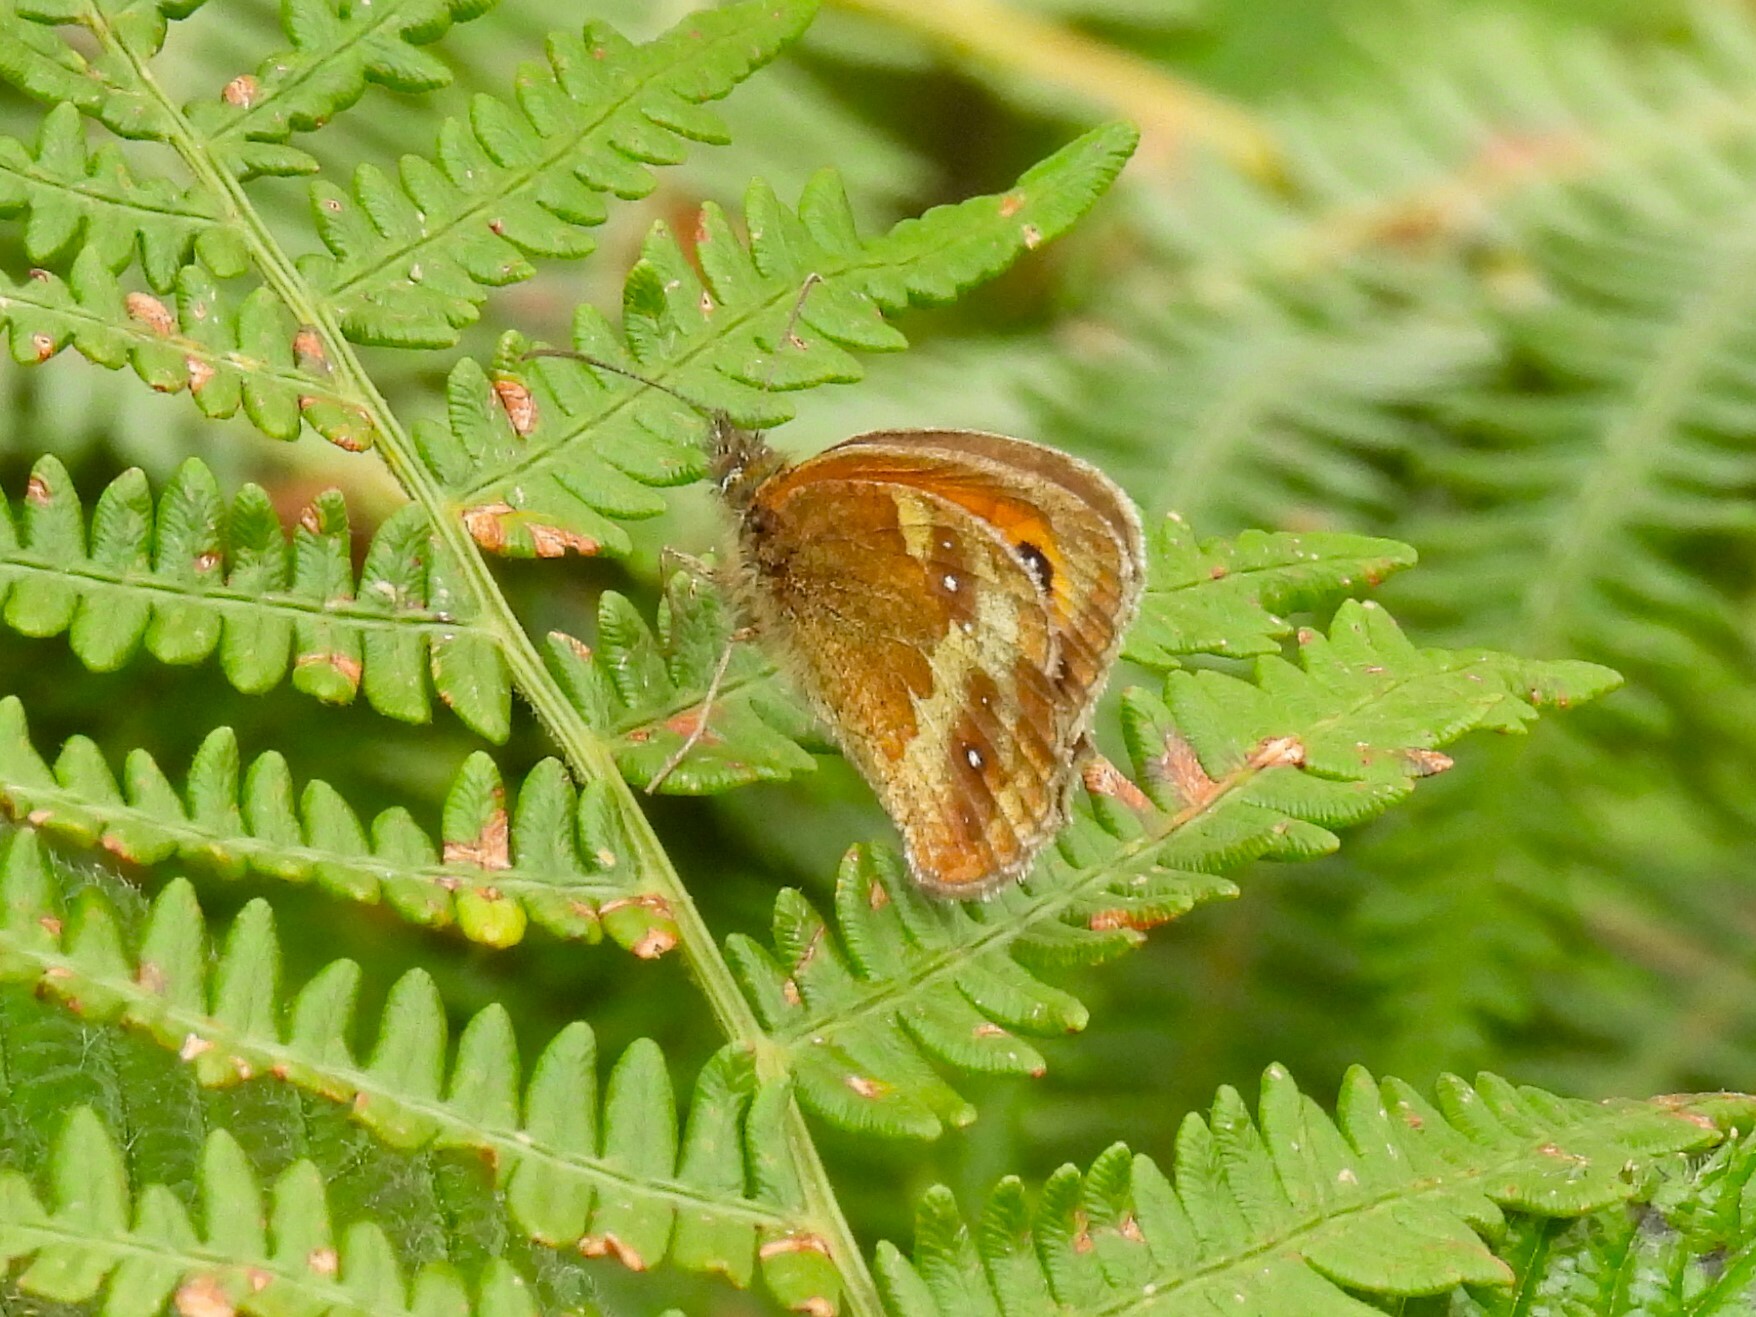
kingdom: Animalia
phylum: Arthropoda
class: Insecta
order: Lepidoptera
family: Nymphalidae
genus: Pyronia
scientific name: Pyronia tithonus
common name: Gatekeeper
